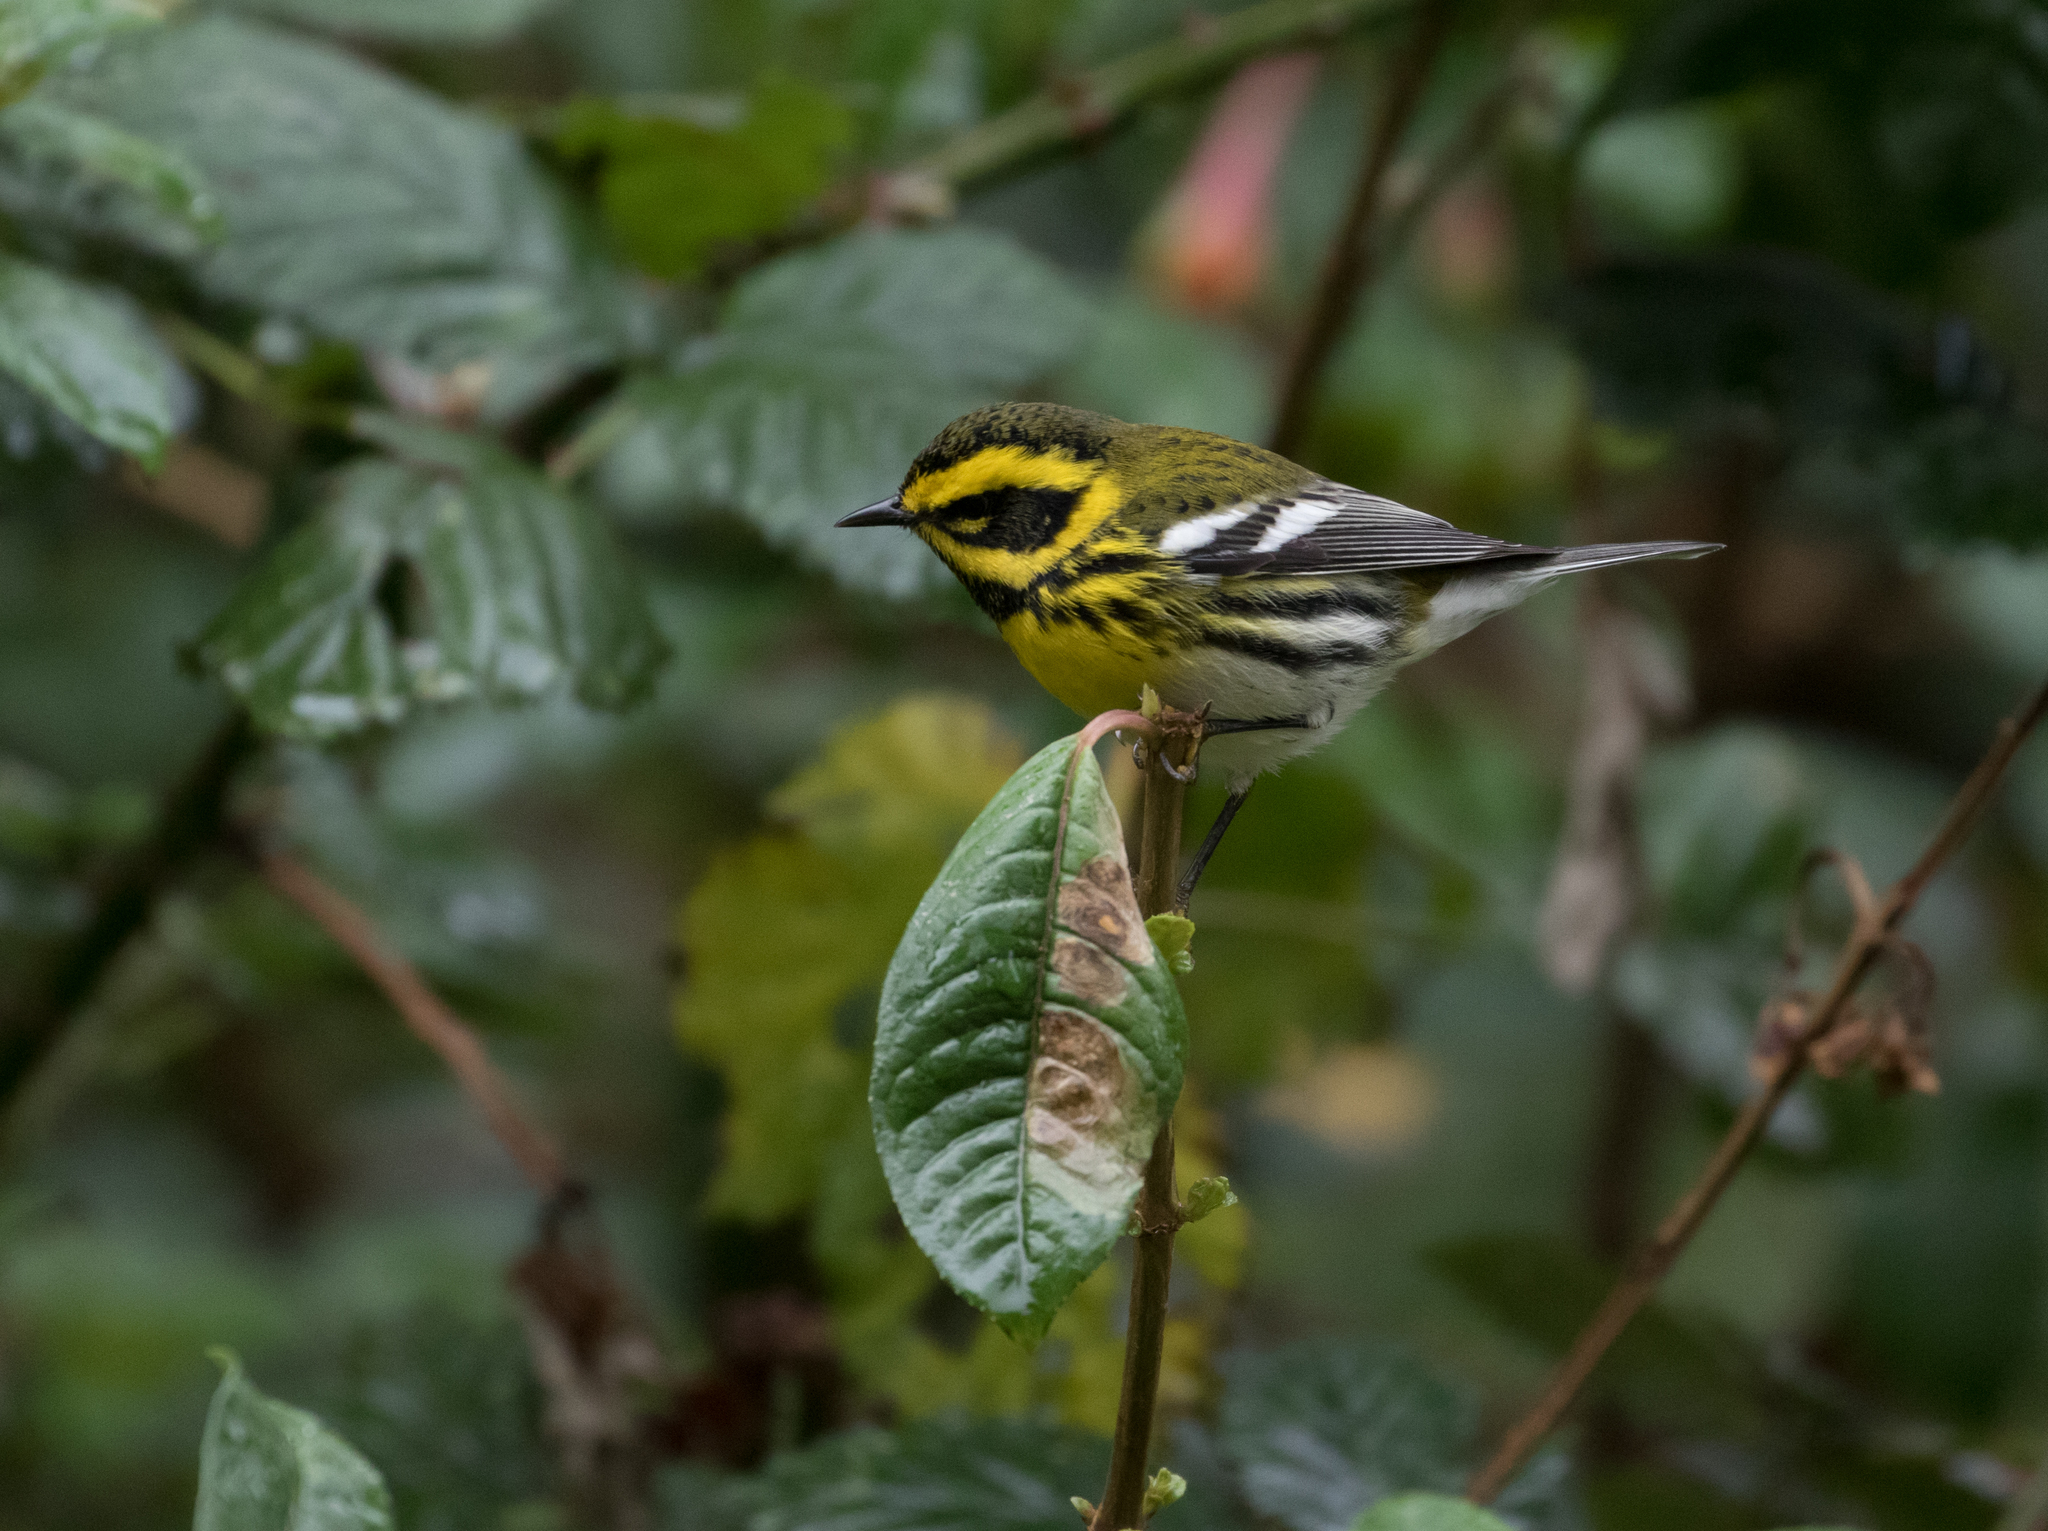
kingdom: Animalia
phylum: Chordata
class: Aves
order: Passeriformes
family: Parulidae
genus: Setophaga
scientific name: Setophaga townsendi
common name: Townsend's warbler
